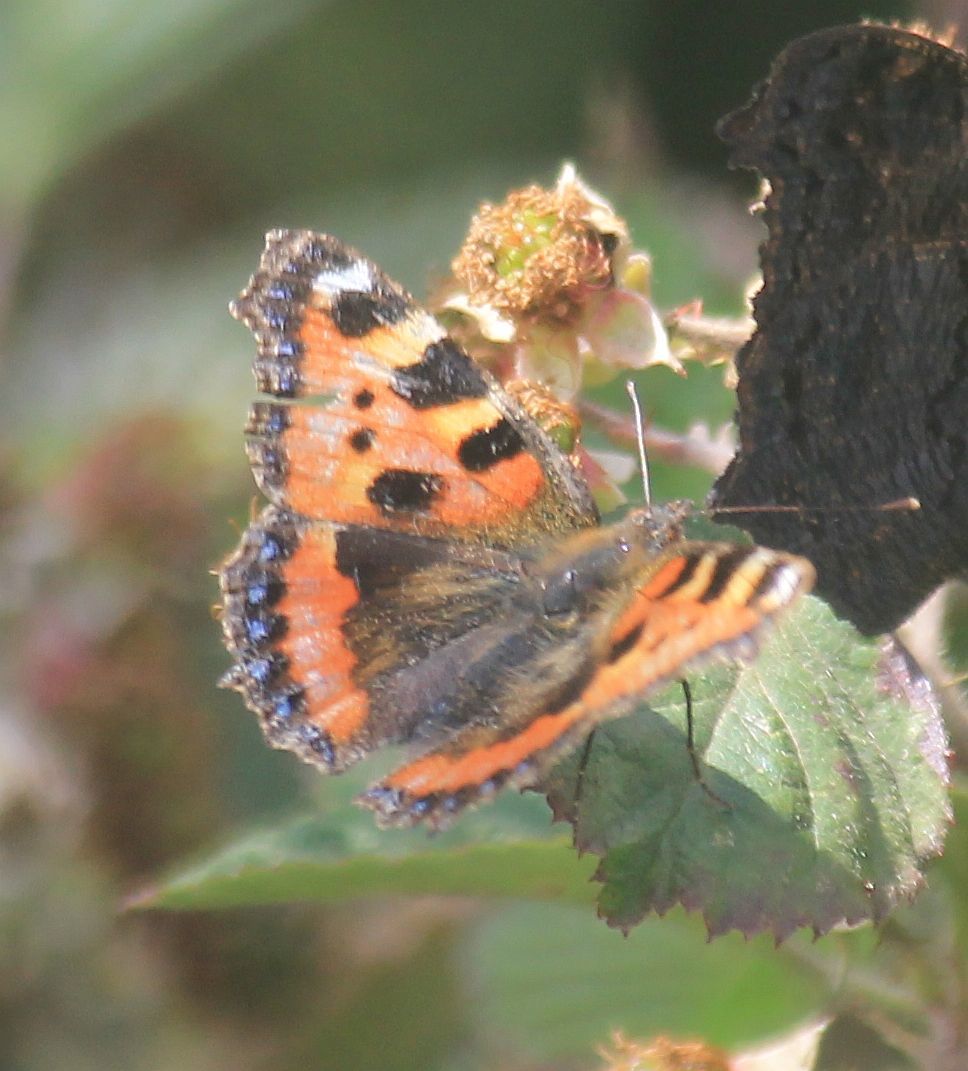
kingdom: Animalia
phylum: Arthropoda
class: Insecta
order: Lepidoptera
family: Nymphalidae
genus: Aglais
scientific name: Aglais urticae
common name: Small tortoiseshell
